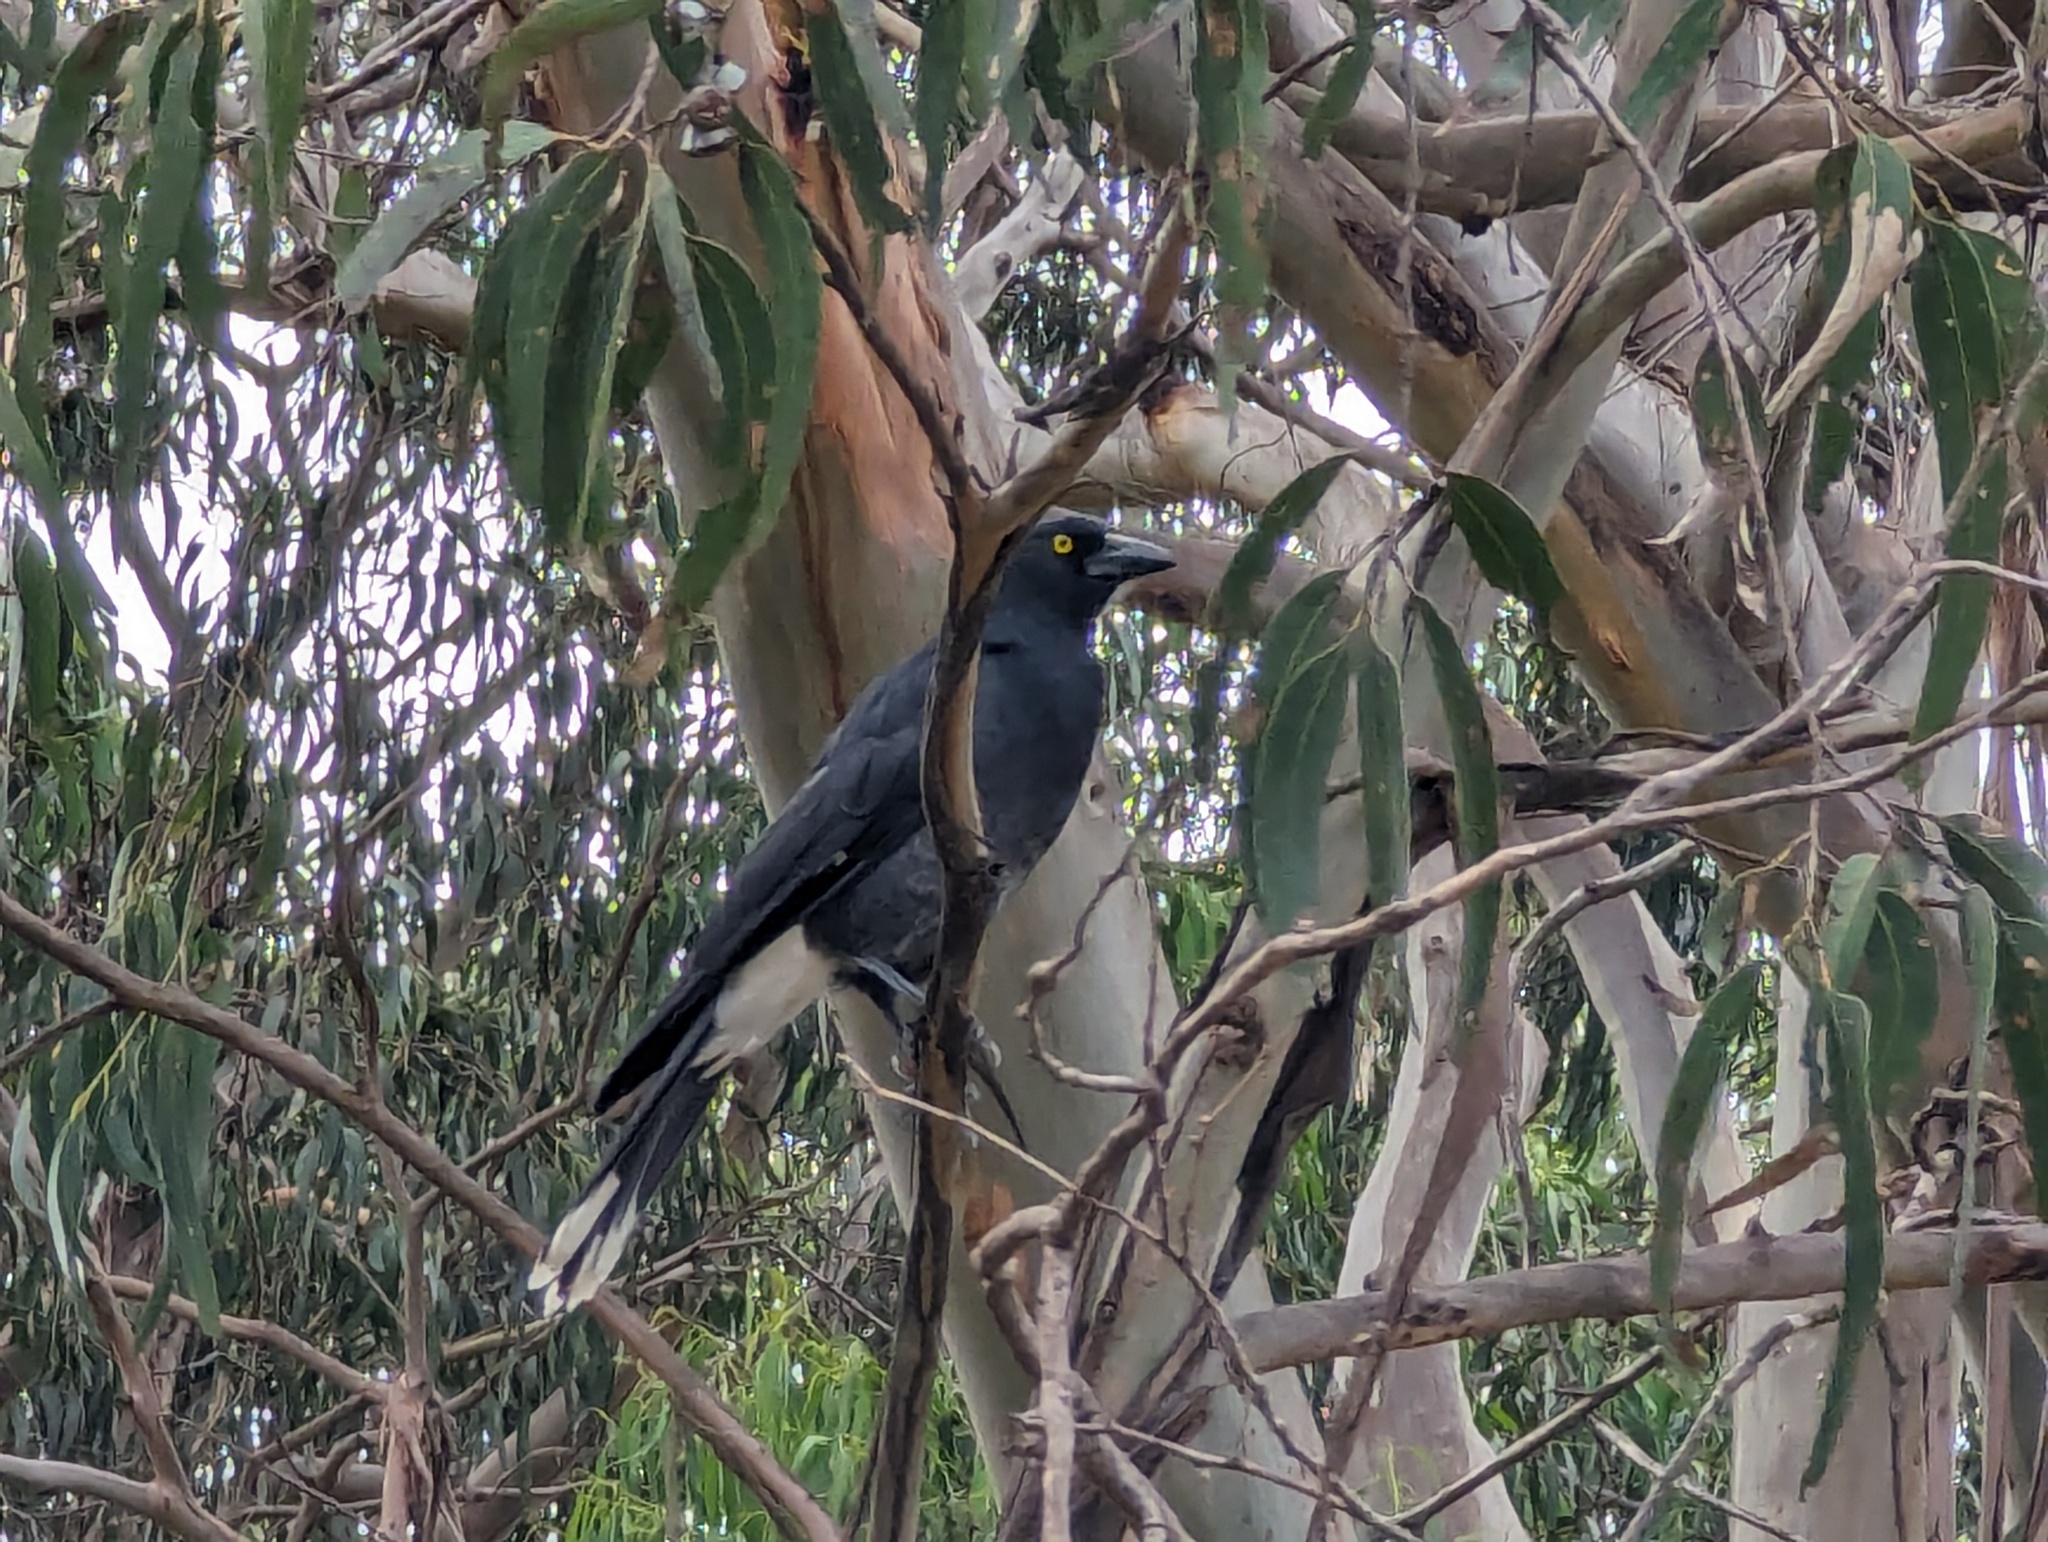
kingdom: Animalia
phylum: Chordata
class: Aves
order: Passeriformes
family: Cracticidae
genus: Strepera
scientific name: Strepera graculina
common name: Pied currawong
